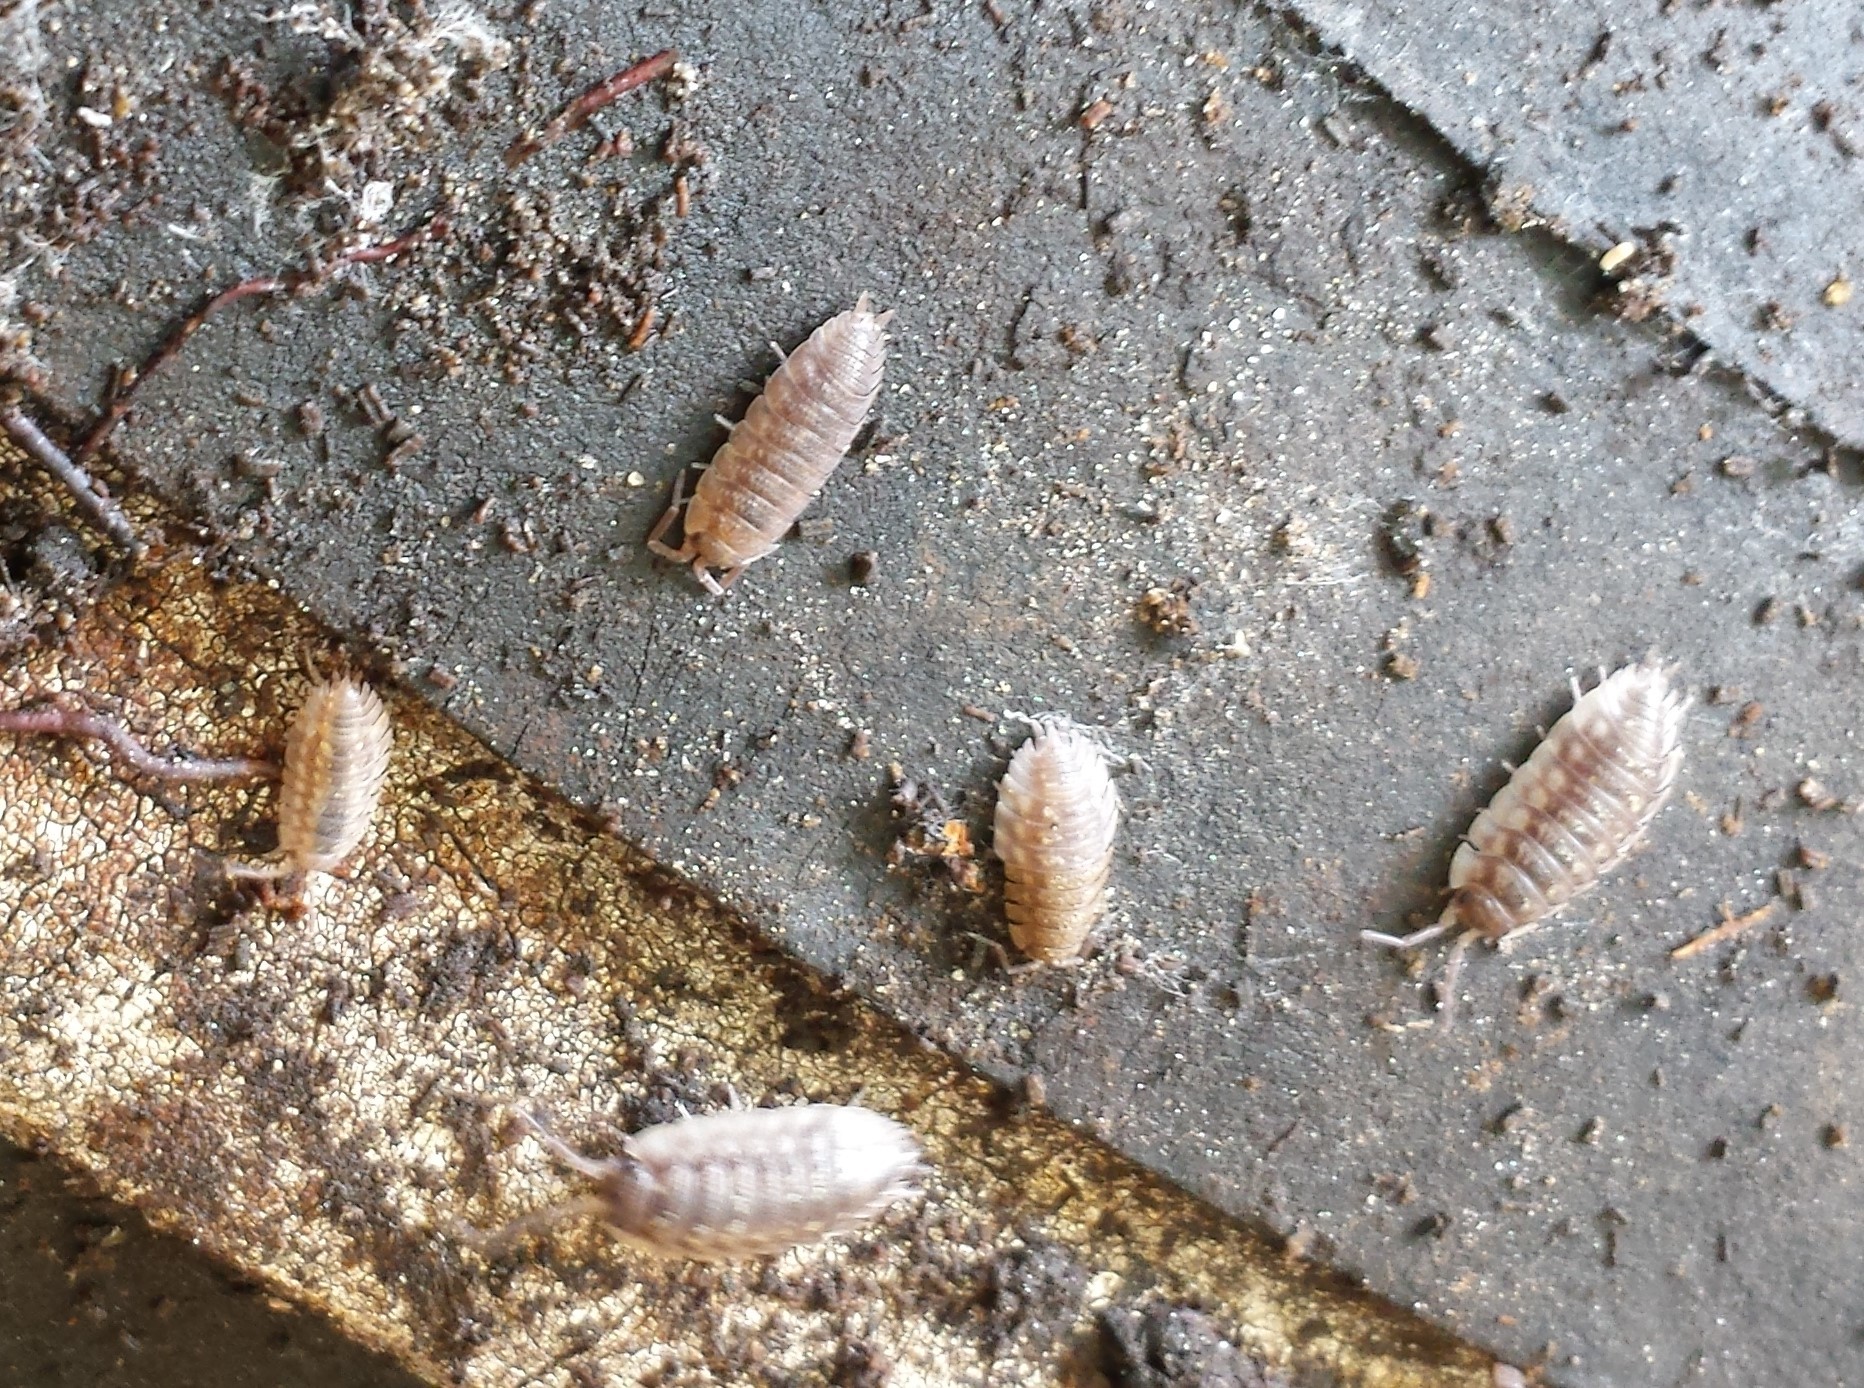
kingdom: Animalia
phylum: Arthropoda
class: Malacostraca
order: Isopoda
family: Oniscidae
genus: Oniscus
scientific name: Oniscus asellus
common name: Common shiny woodlouse
